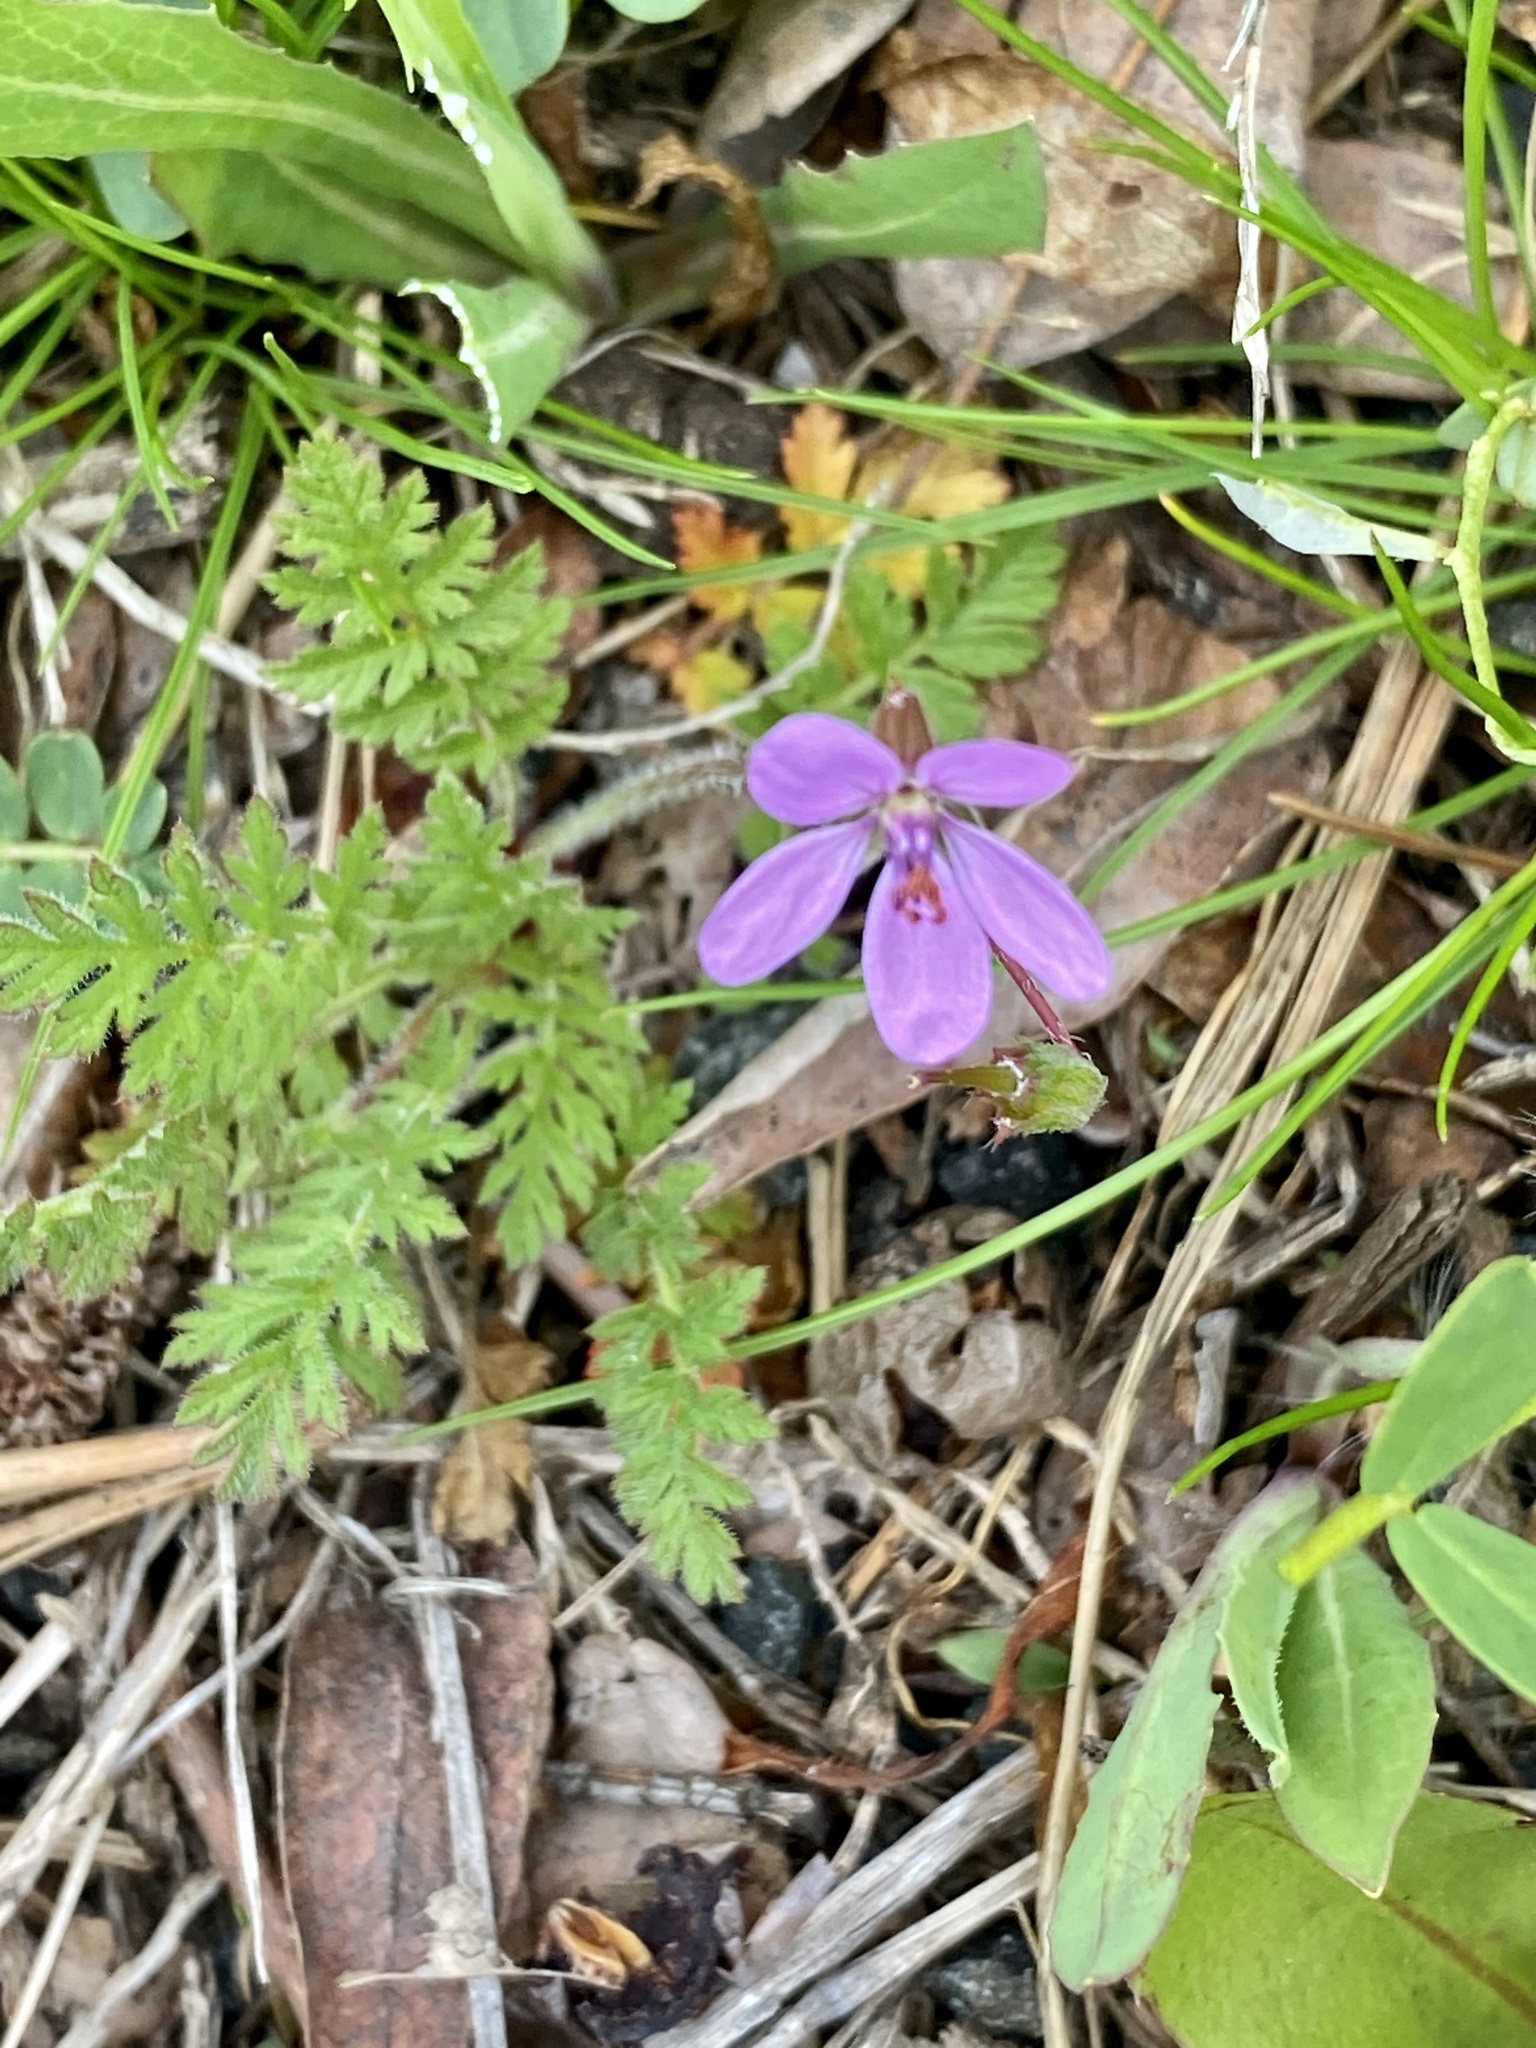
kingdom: Plantae
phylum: Tracheophyta
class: Magnoliopsida
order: Geraniales
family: Geraniaceae
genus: Erodium
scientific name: Erodium cicutarium
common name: Common stork's-bill
